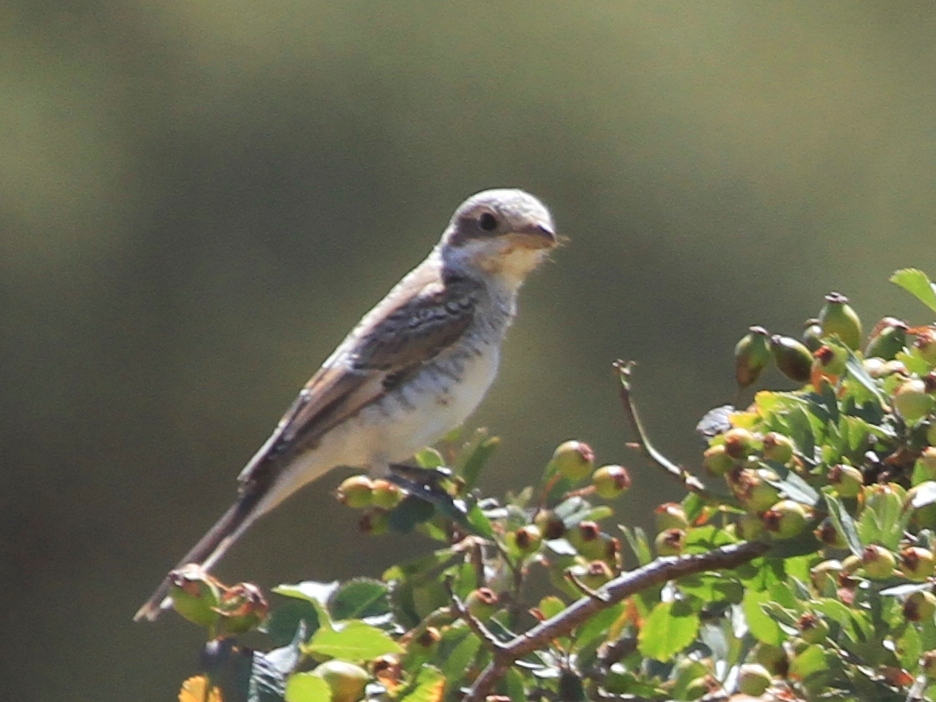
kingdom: Animalia
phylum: Chordata
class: Aves
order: Passeriformes
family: Laniidae
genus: Lanius
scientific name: Lanius senator
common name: Woodchat shrike
